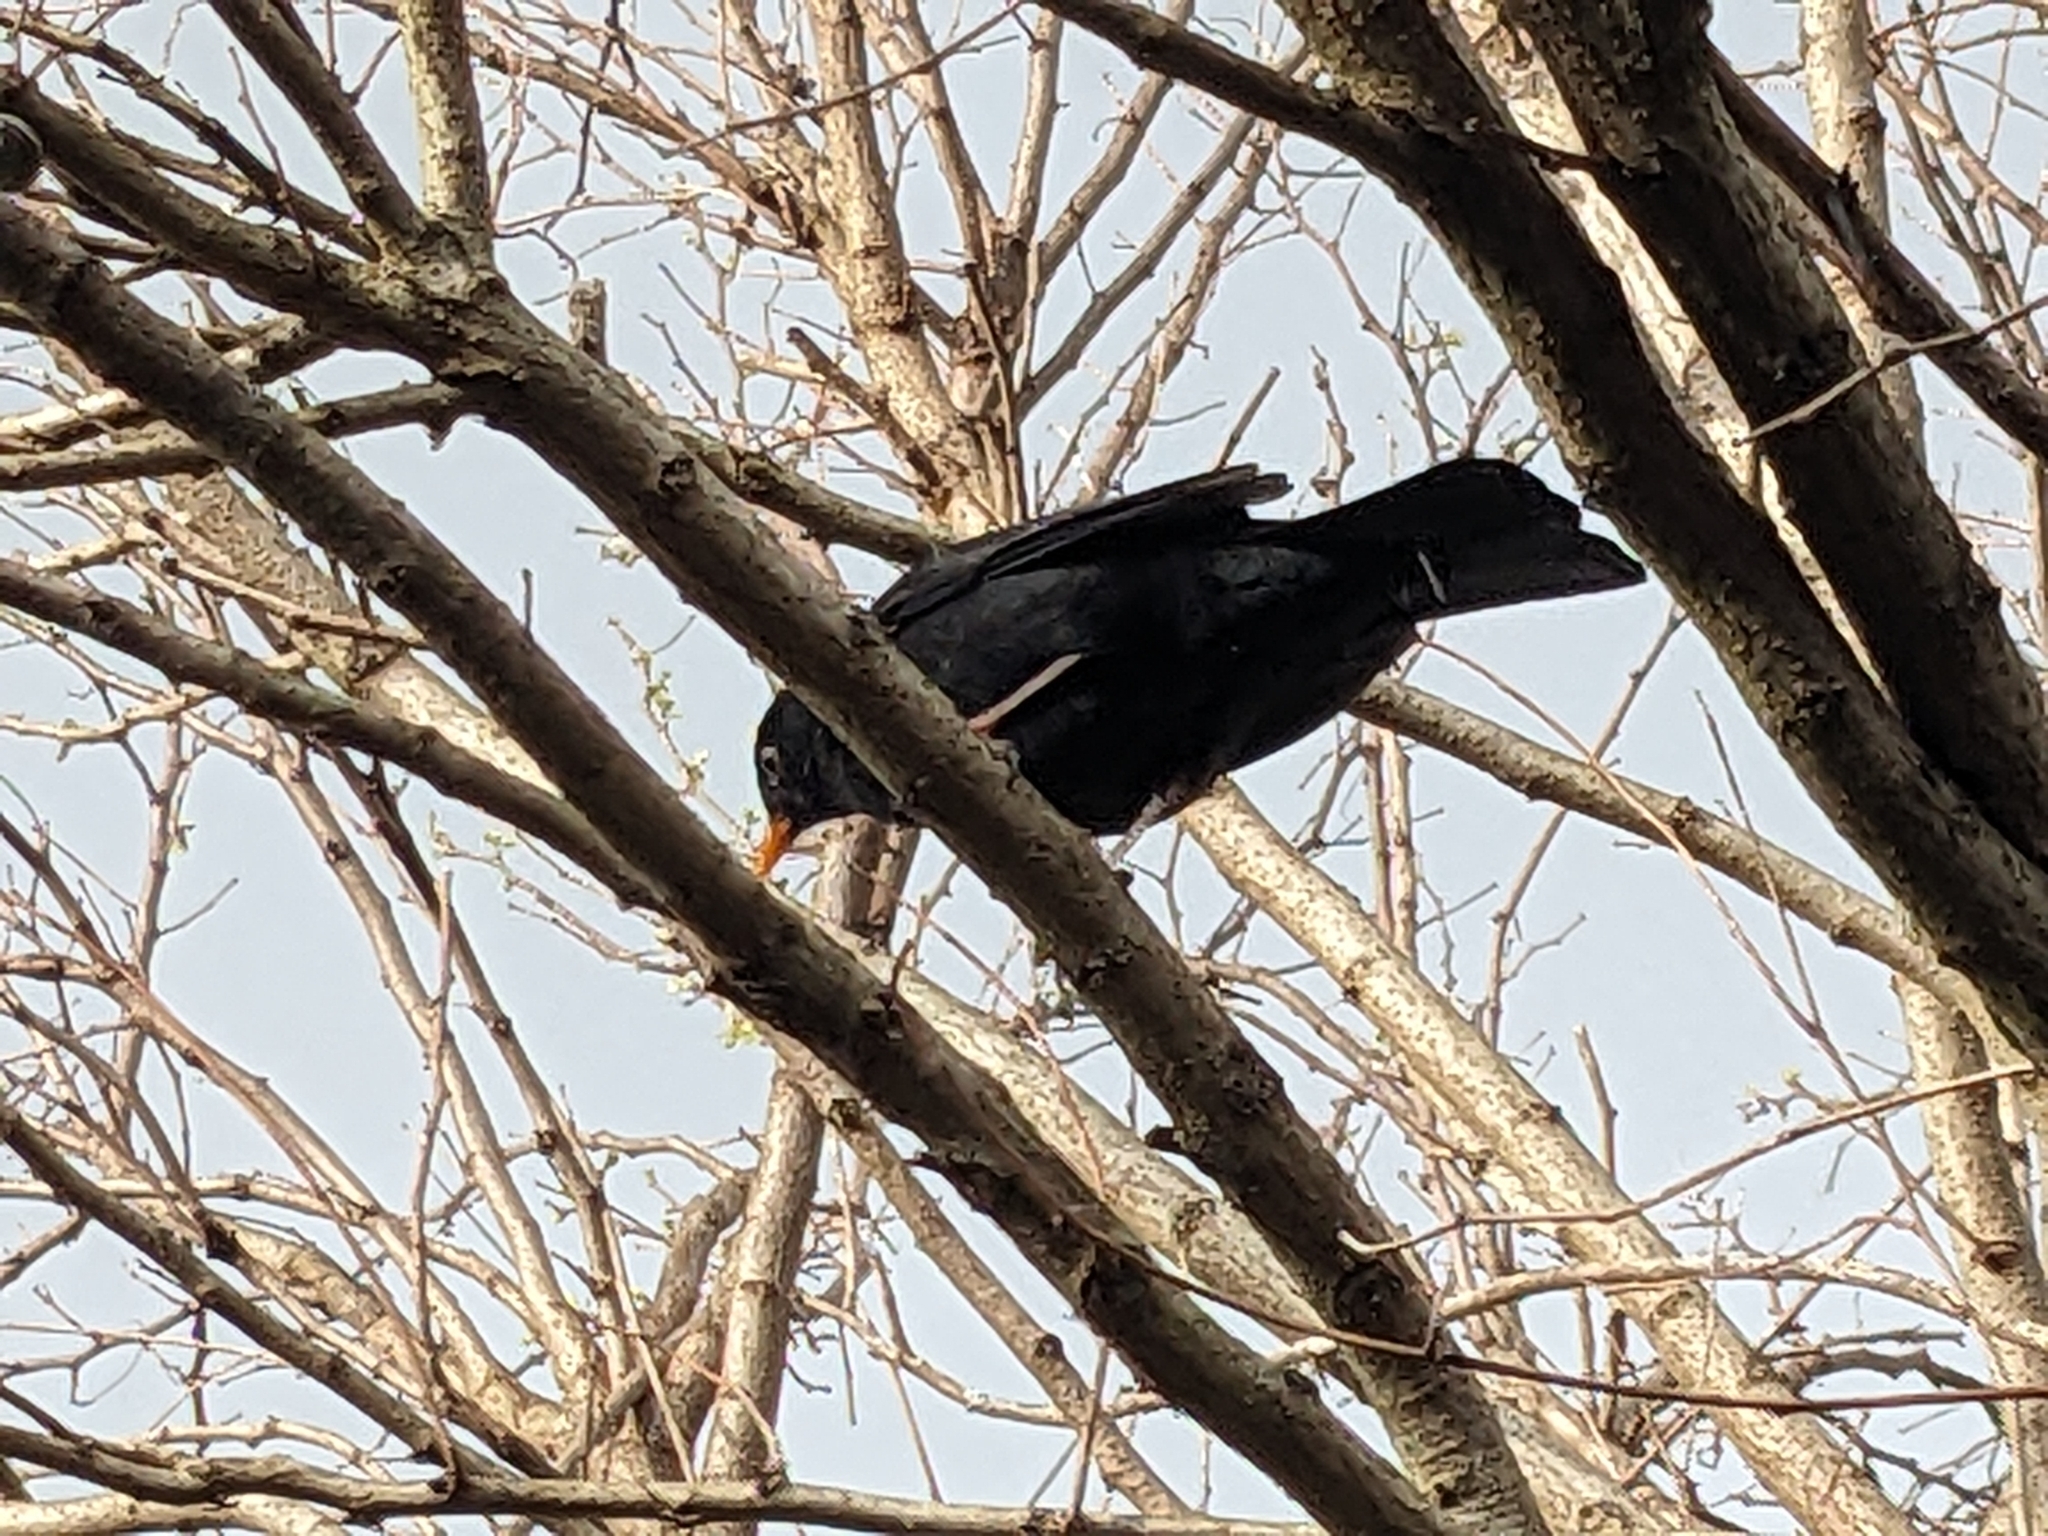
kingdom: Animalia
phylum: Chordata
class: Aves
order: Passeriformes
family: Turdidae
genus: Turdus
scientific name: Turdus merula
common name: Common blackbird
